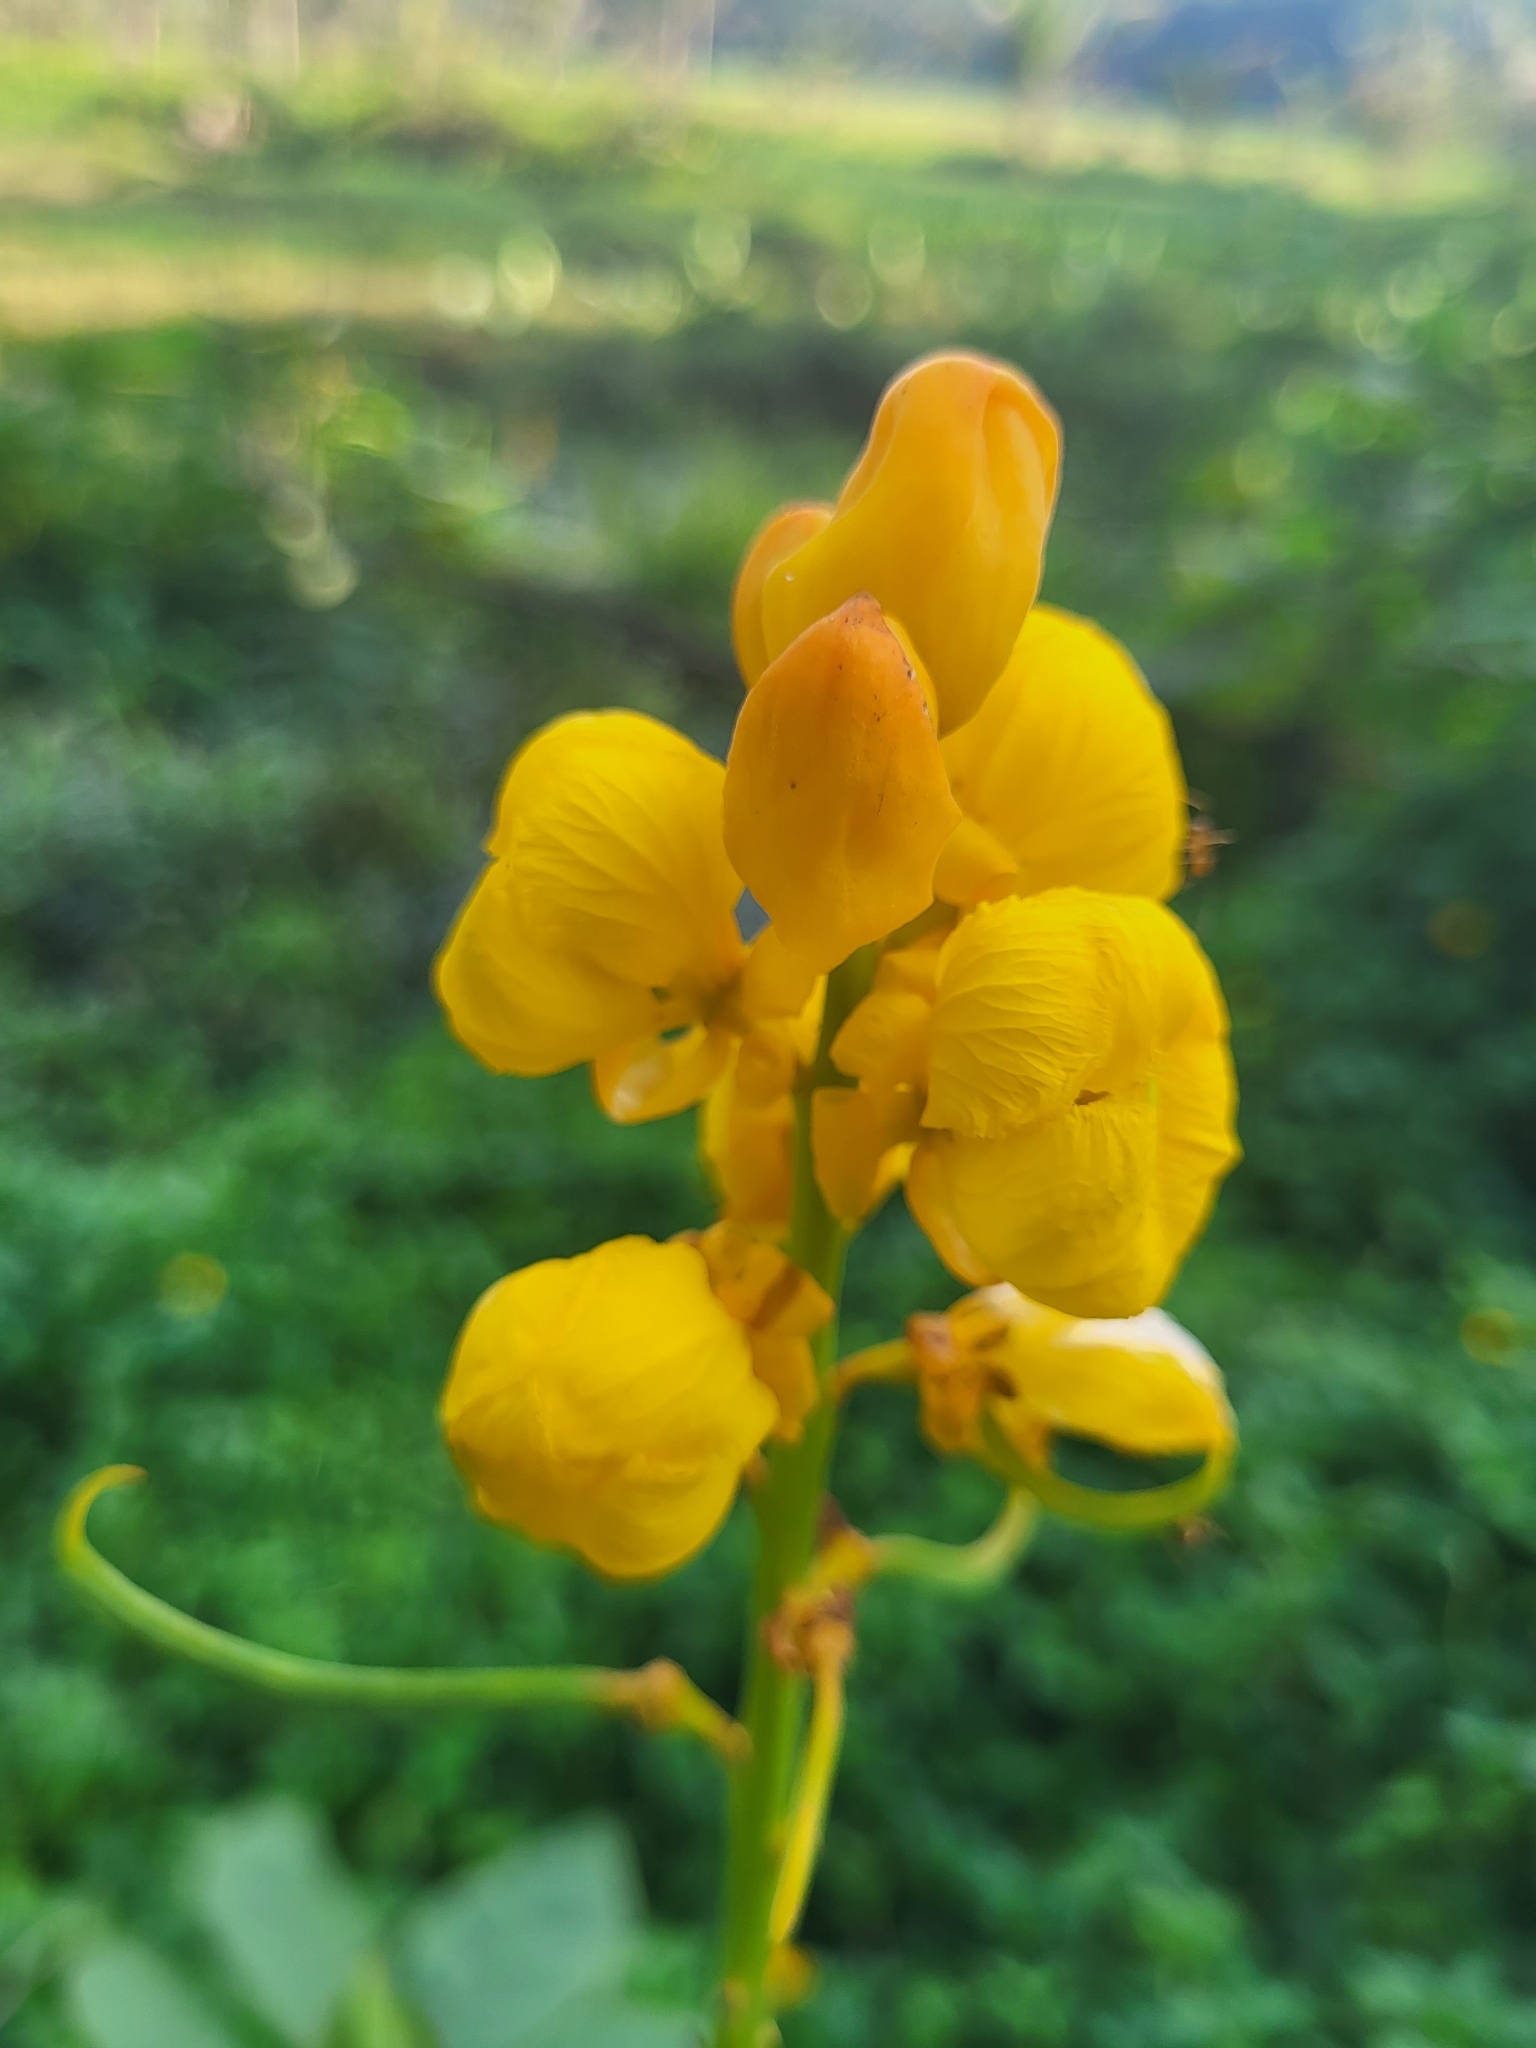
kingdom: Plantae
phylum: Tracheophyta
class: Magnoliopsida
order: Fabales
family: Fabaceae
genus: Senna
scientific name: Senna alata
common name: Emperor's candlesticks
